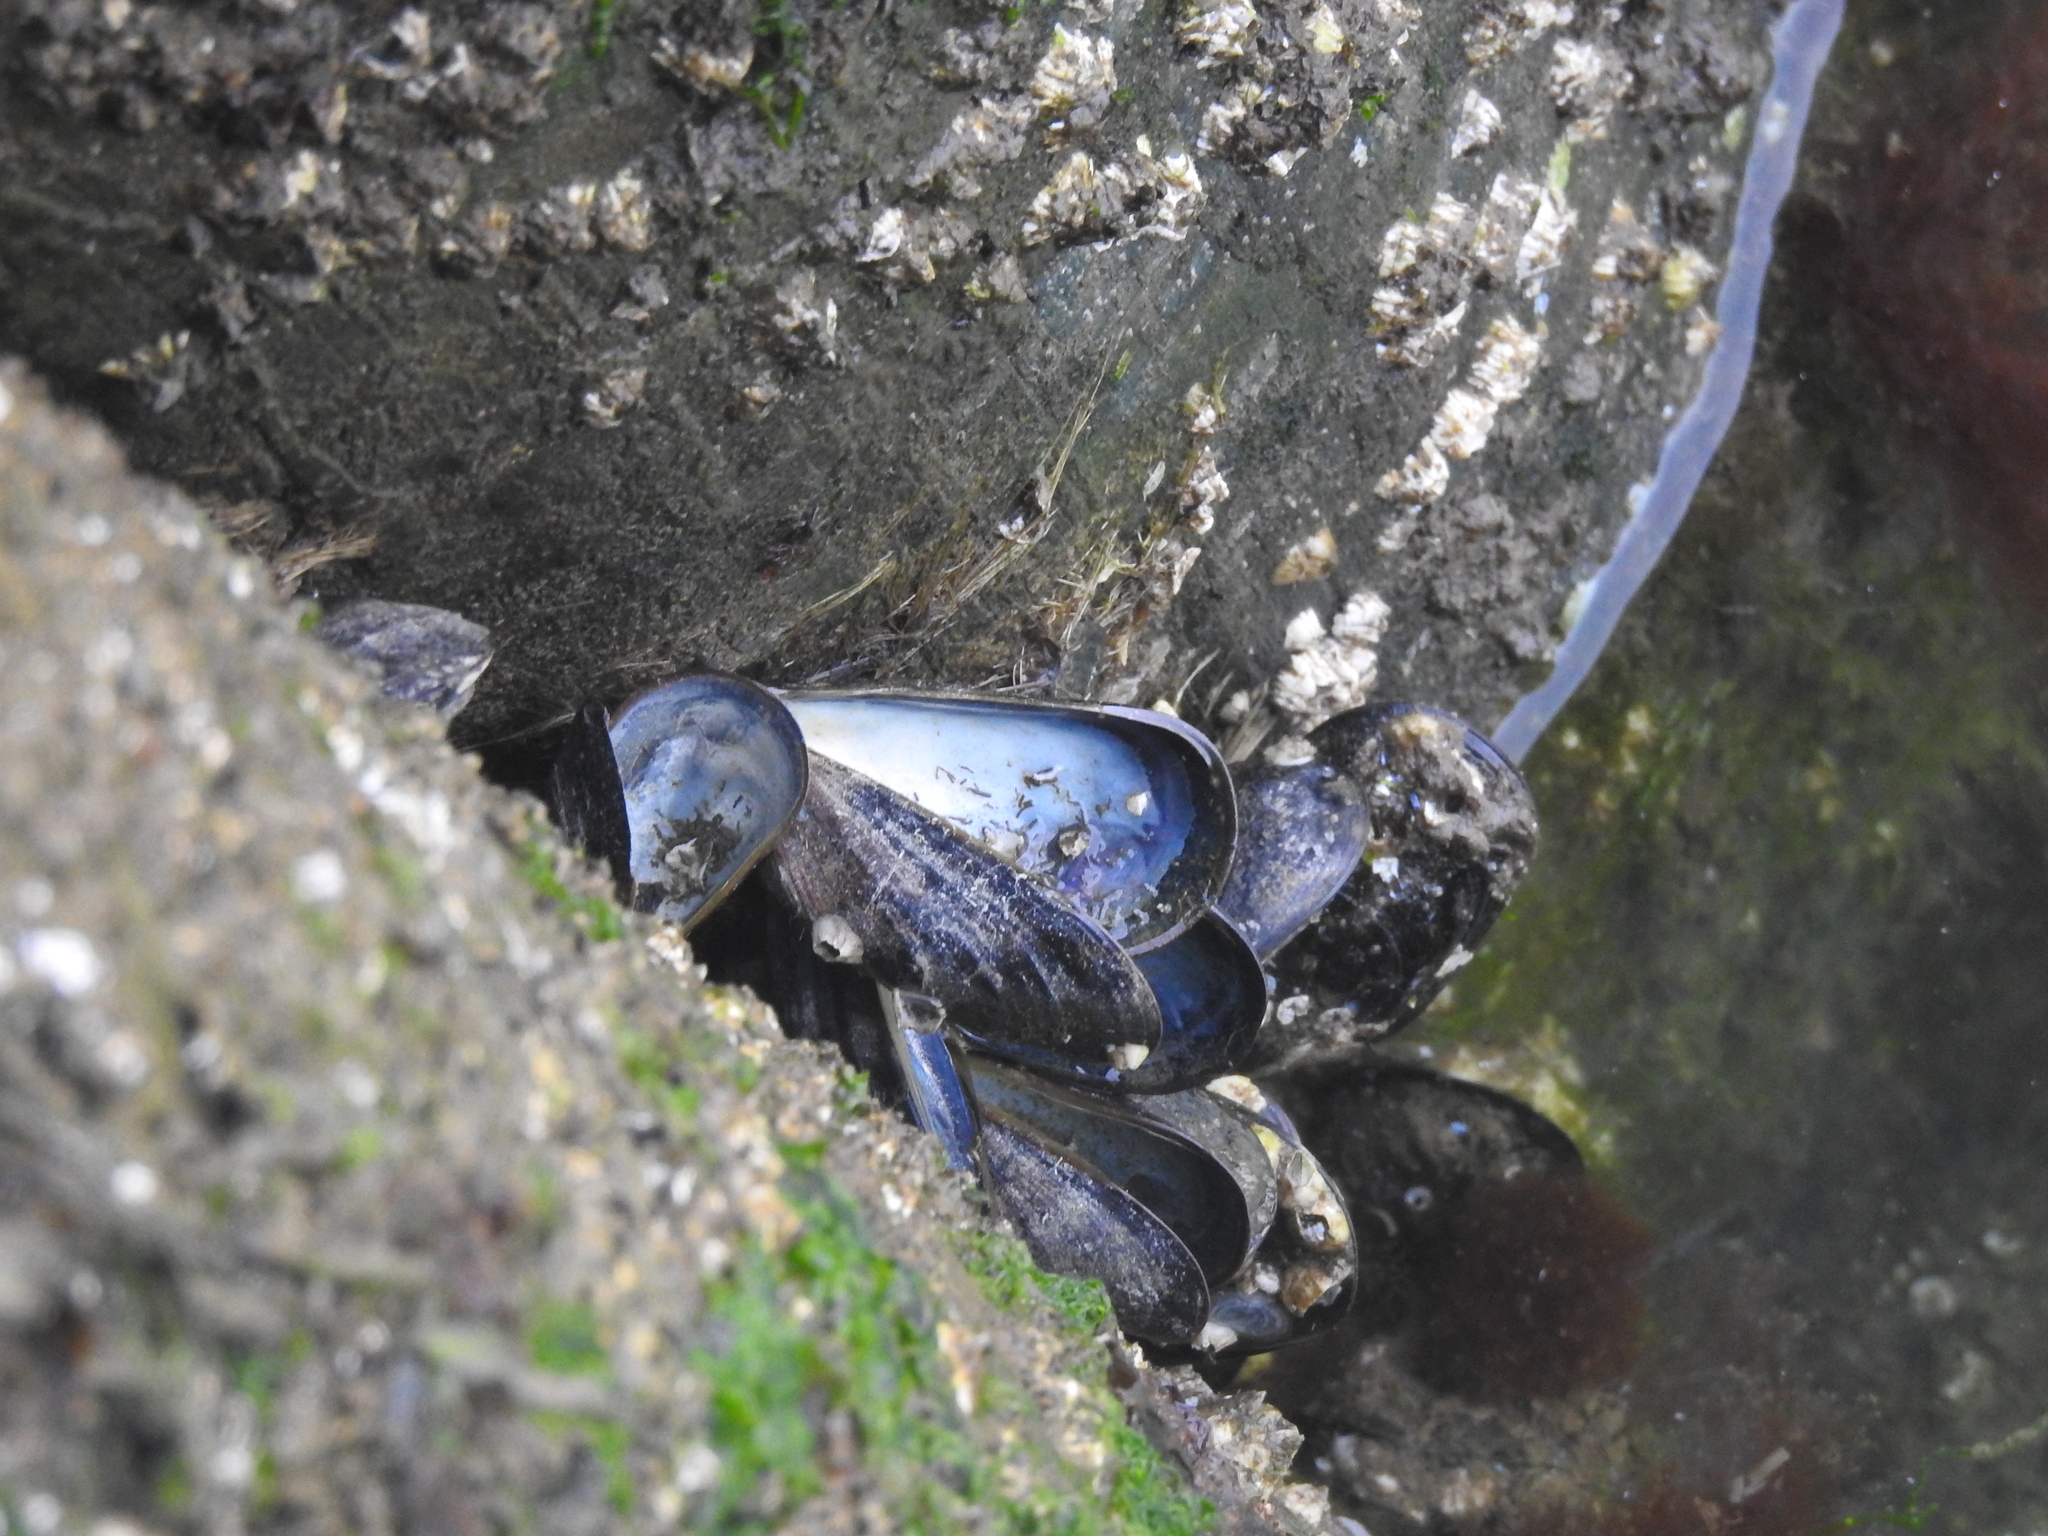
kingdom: Animalia
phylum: Mollusca
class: Bivalvia
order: Mytilida
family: Mytilidae
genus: Mytilus
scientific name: Mytilus edulis
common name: Blue mussel
